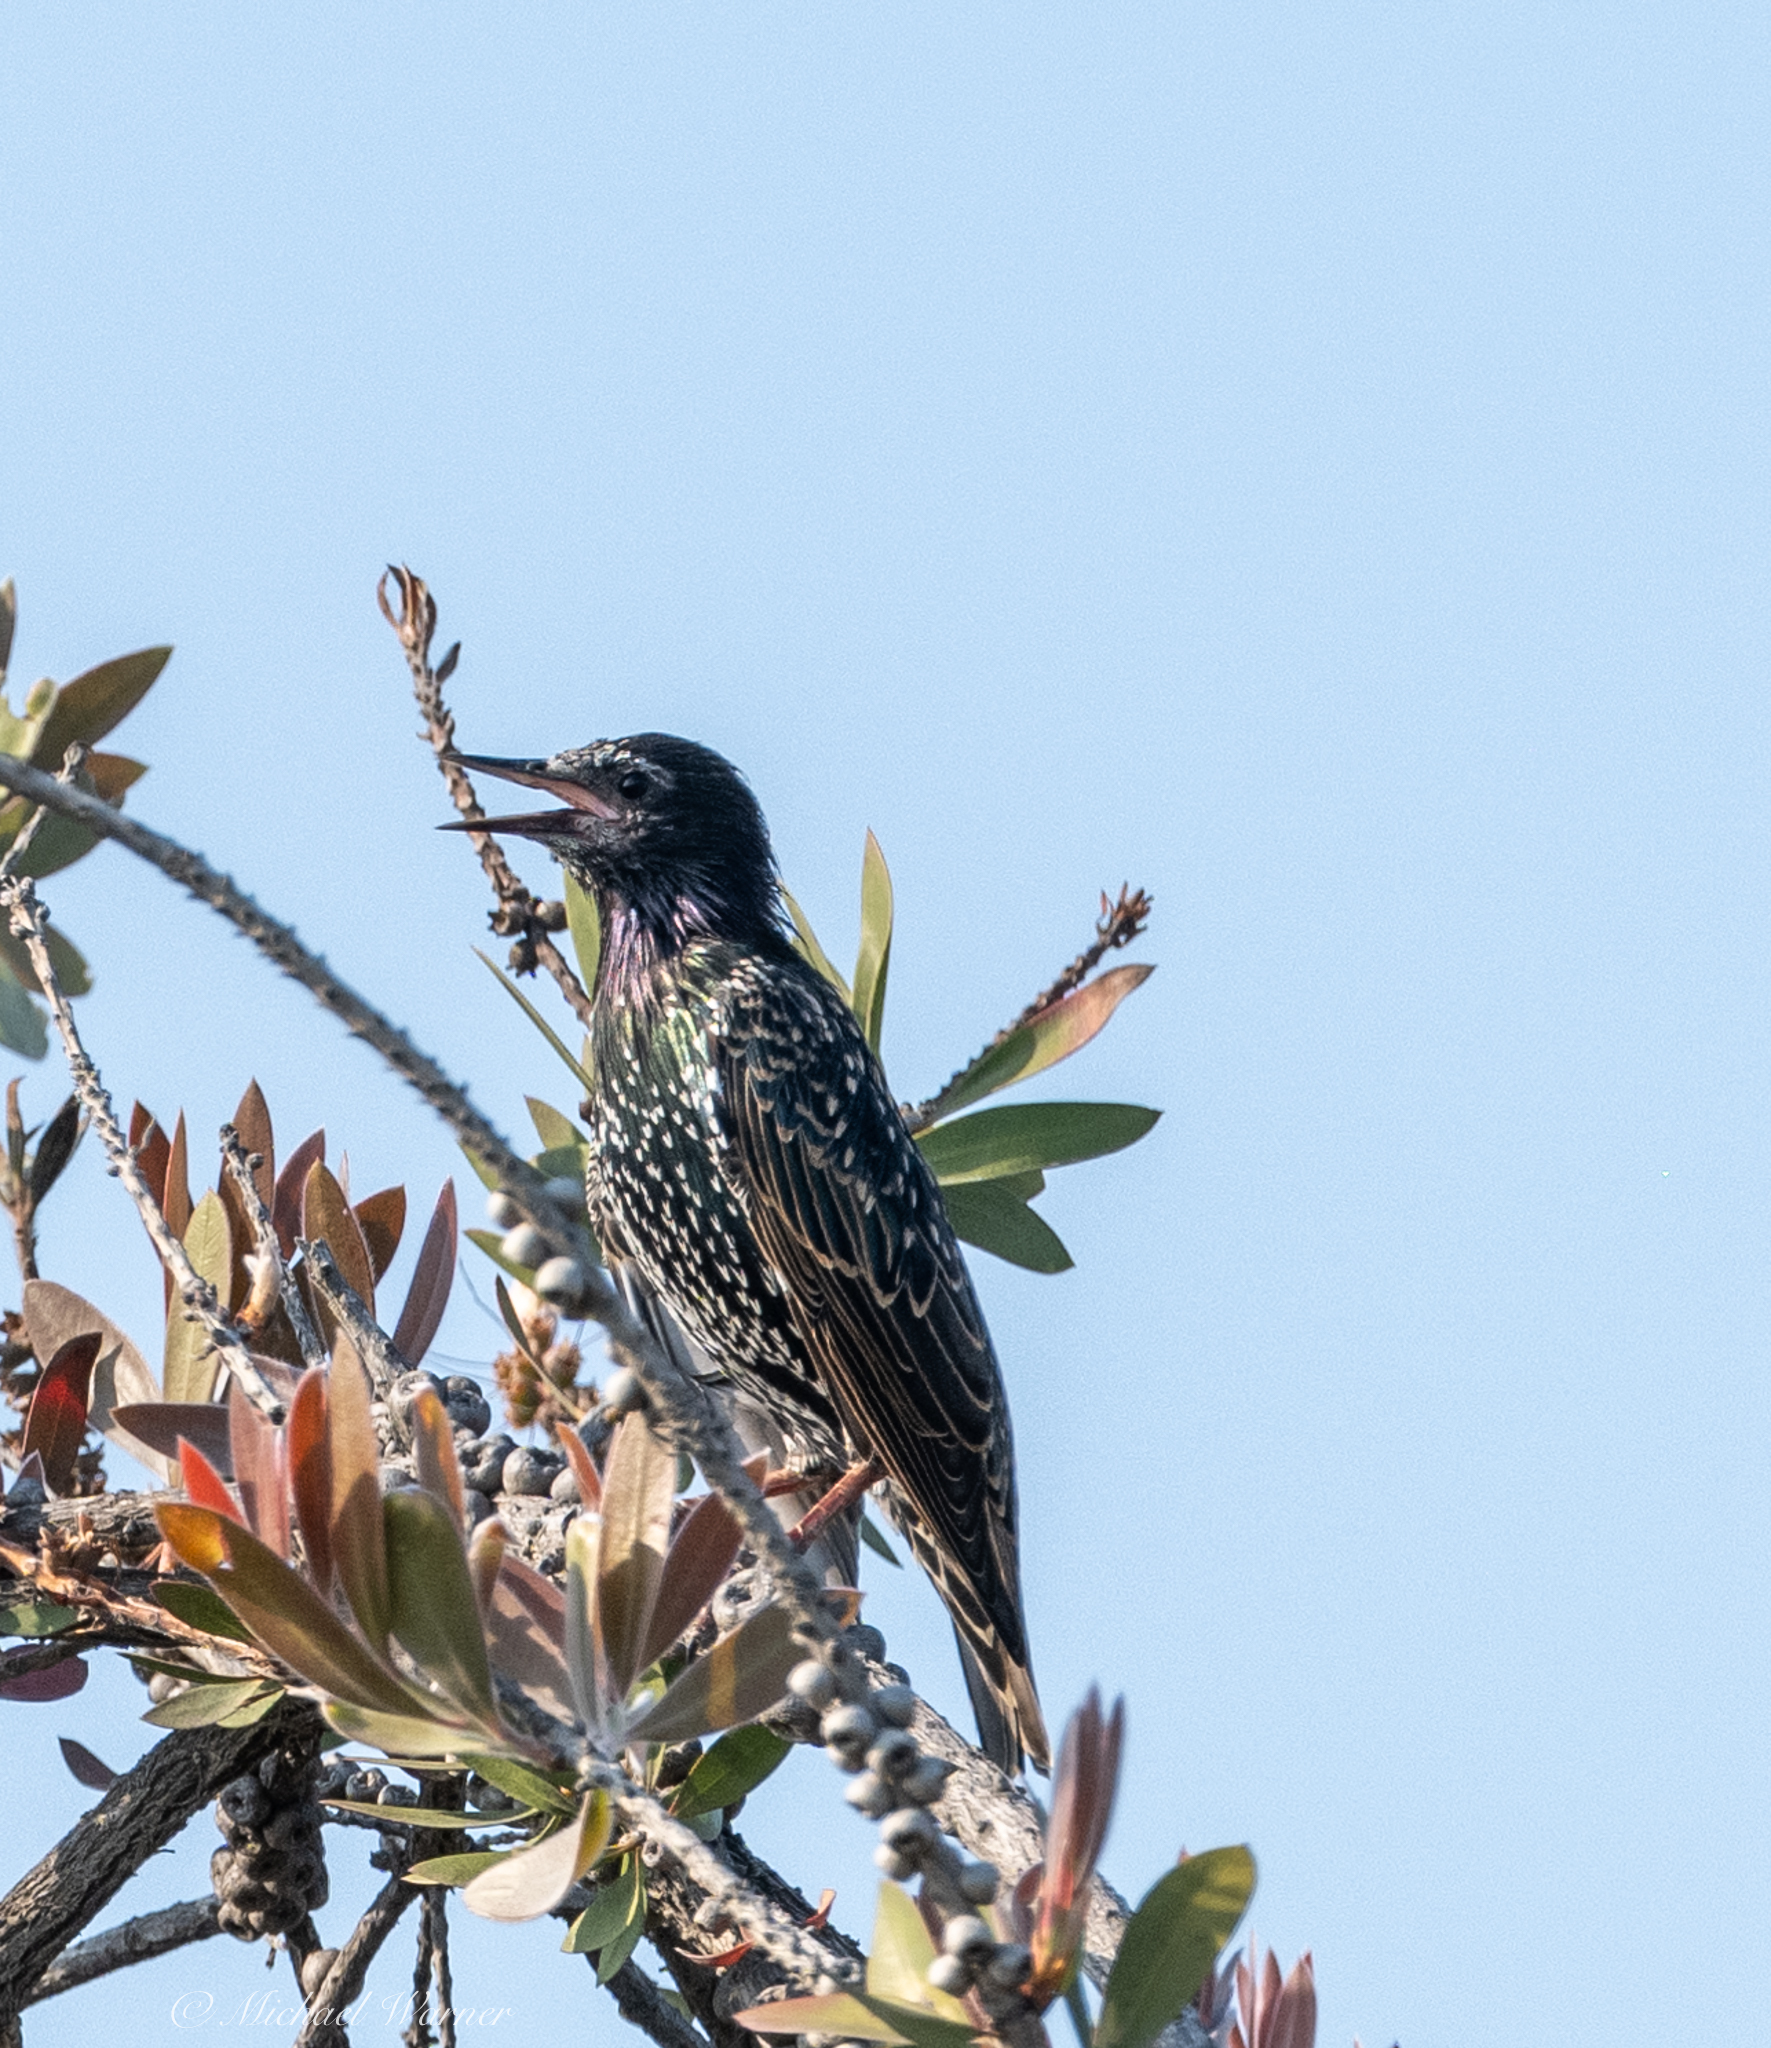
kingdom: Animalia
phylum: Chordata
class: Aves
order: Passeriformes
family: Sturnidae
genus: Sturnus
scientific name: Sturnus vulgaris
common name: Common starling
